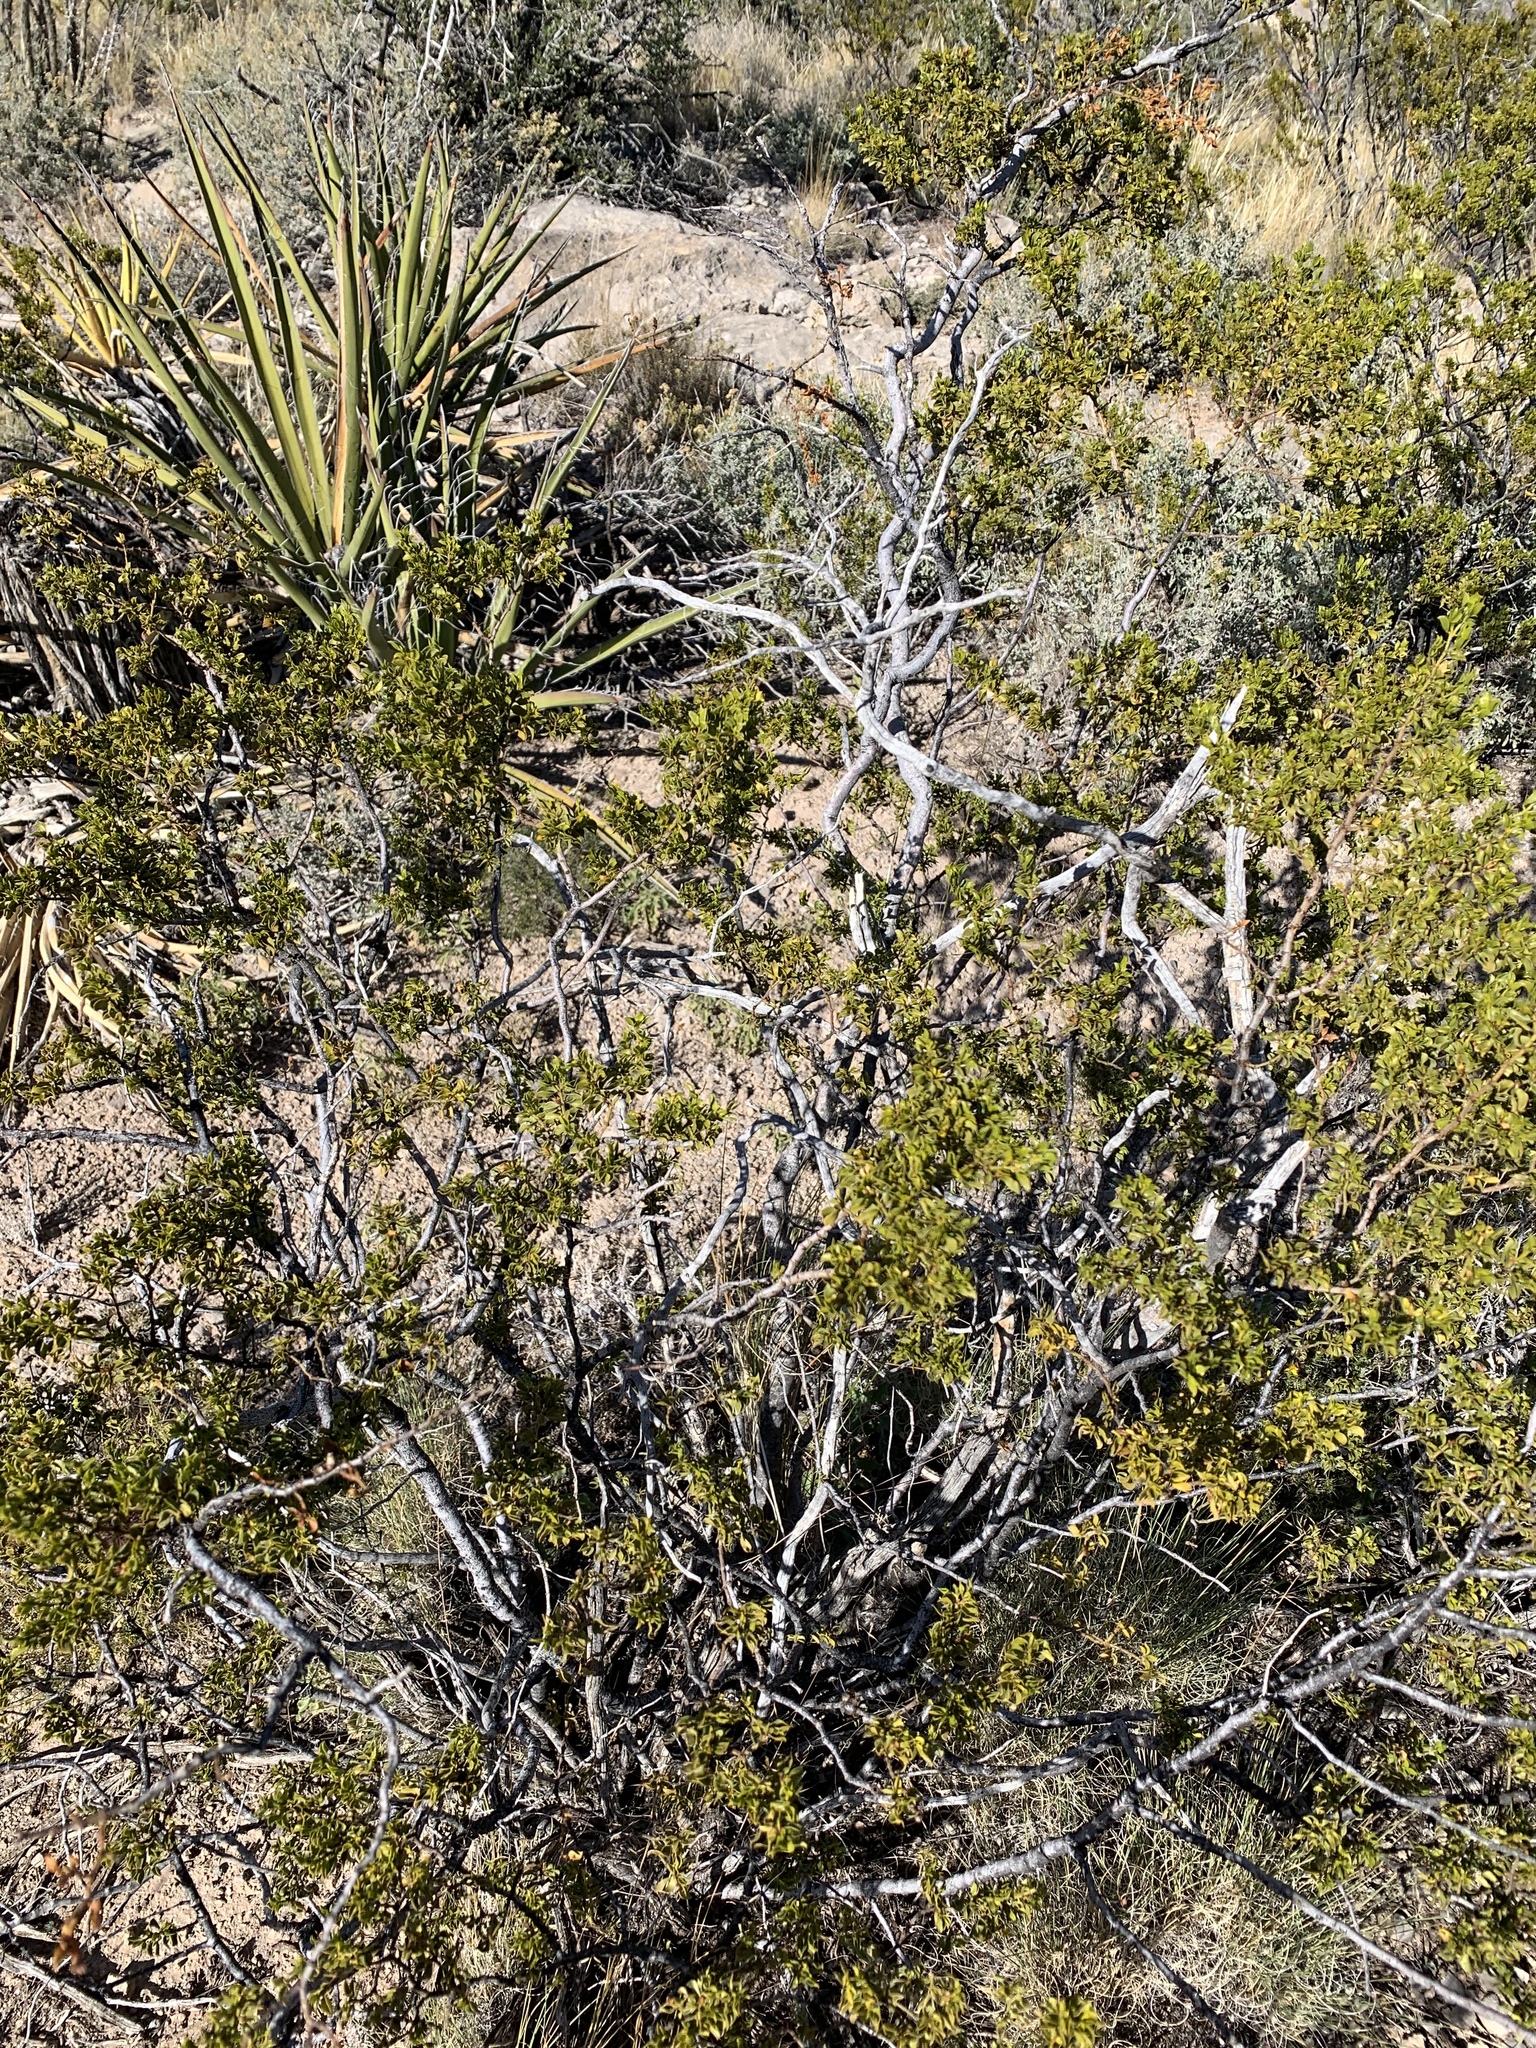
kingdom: Plantae
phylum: Tracheophyta
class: Magnoliopsida
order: Zygophyllales
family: Zygophyllaceae
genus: Larrea
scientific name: Larrea tridentata
